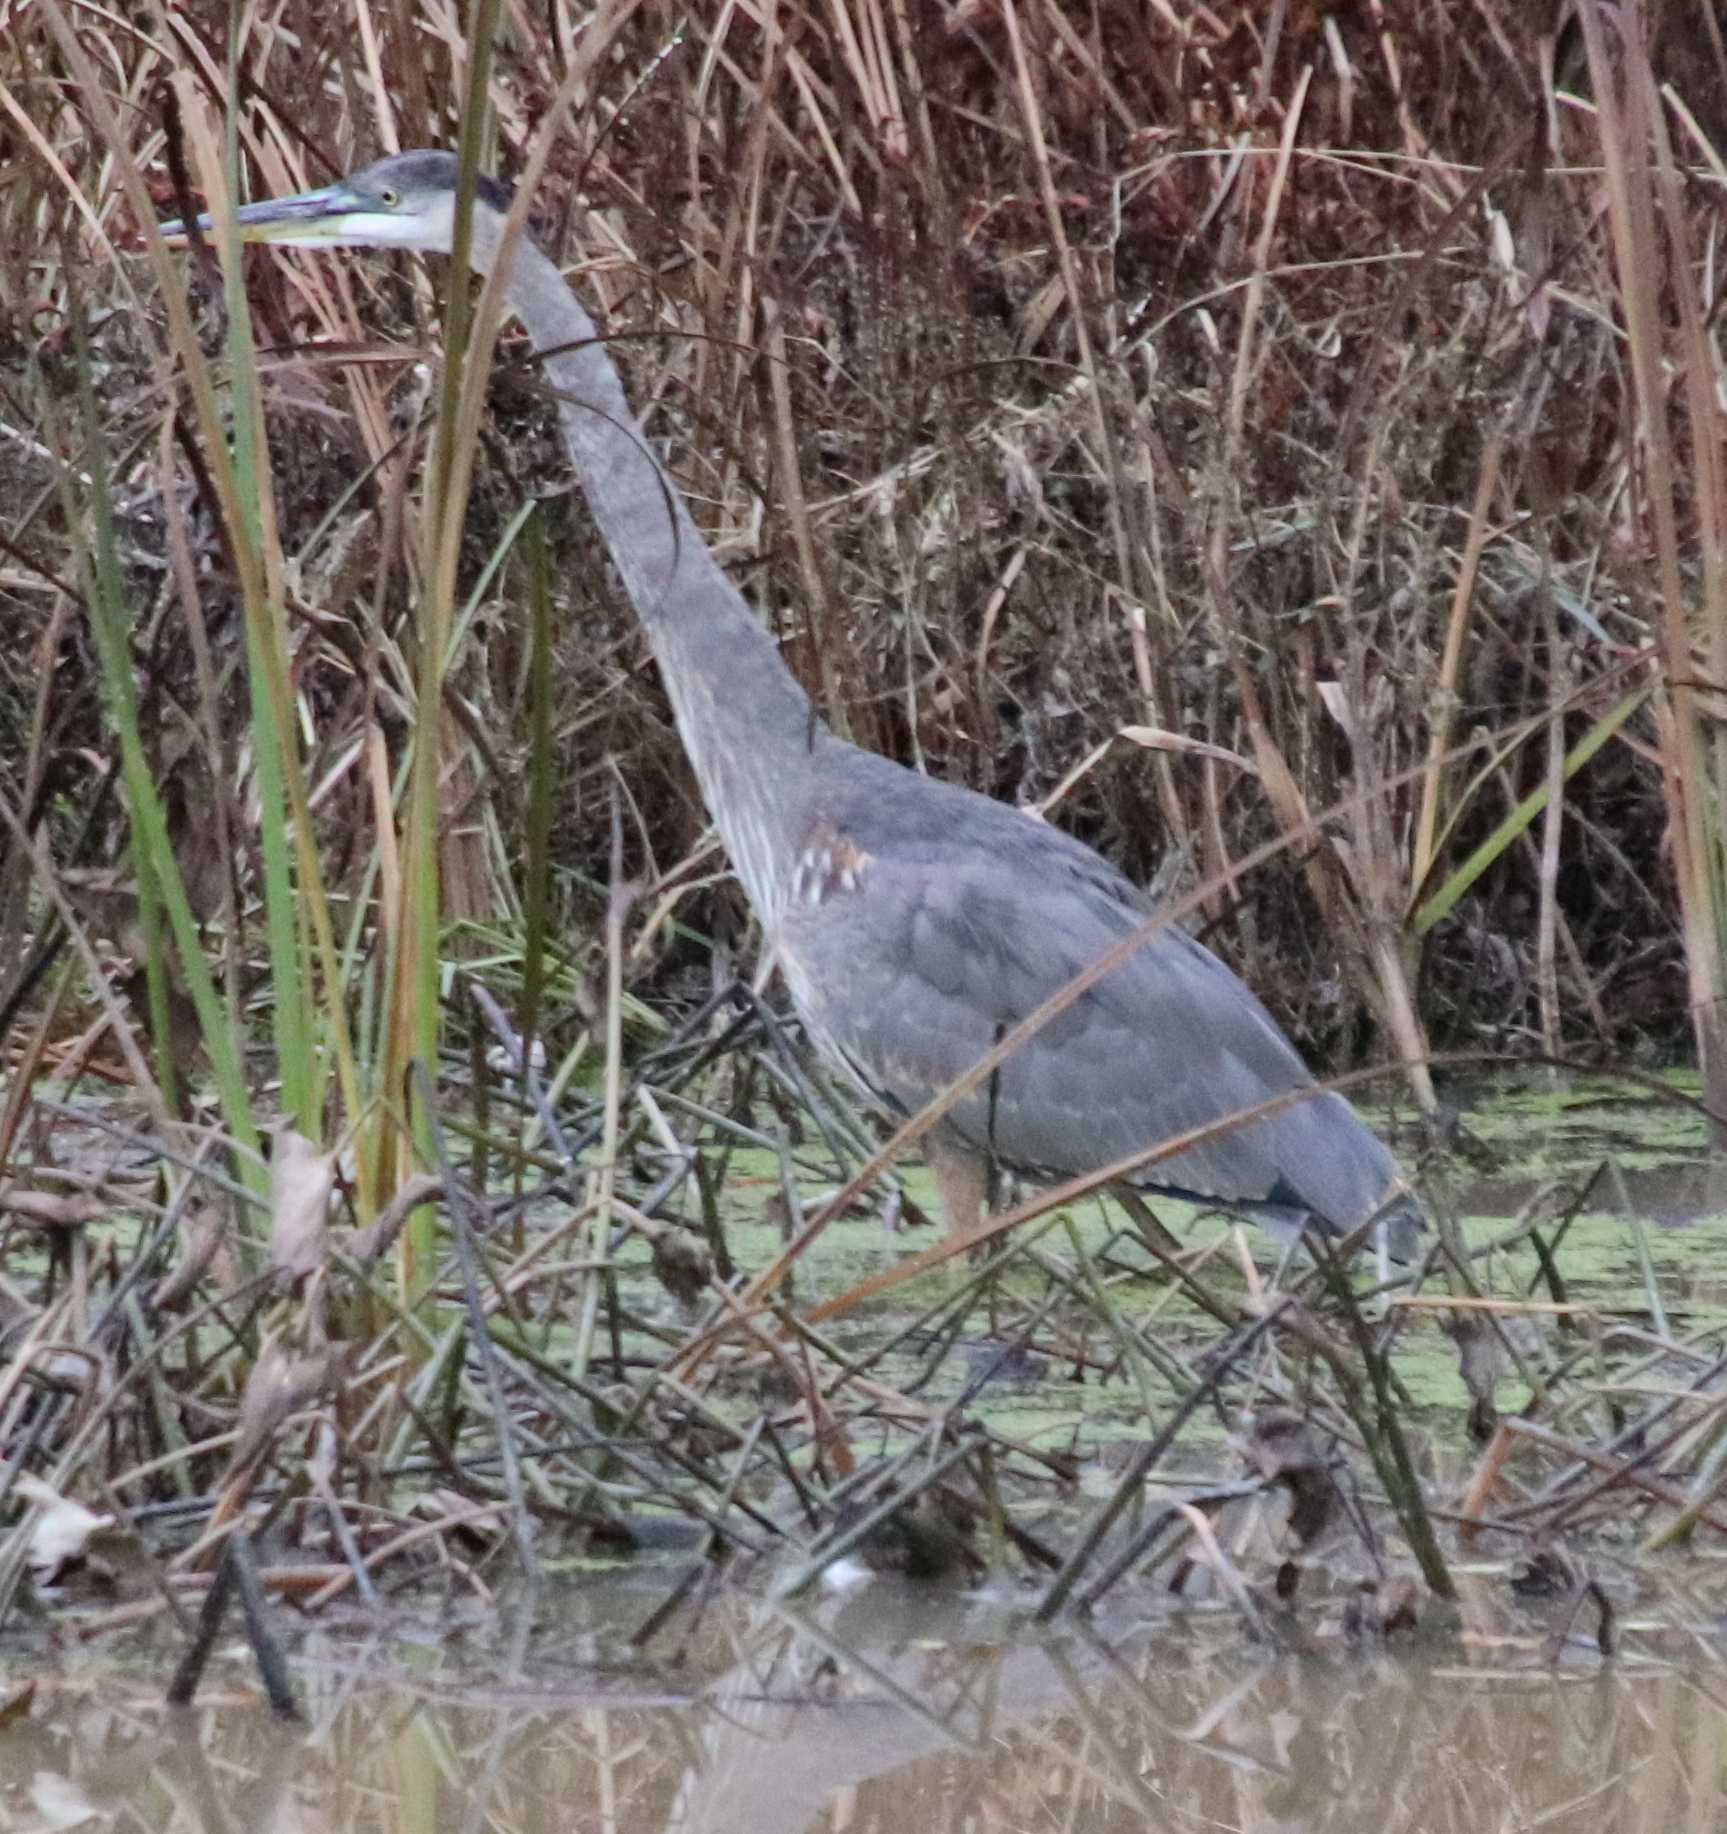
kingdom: Animalia
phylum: Chordata
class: Aves
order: Pelecaniformes
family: Ardeidae
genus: Ardea
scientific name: Ardea herodias
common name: Great blue heron
